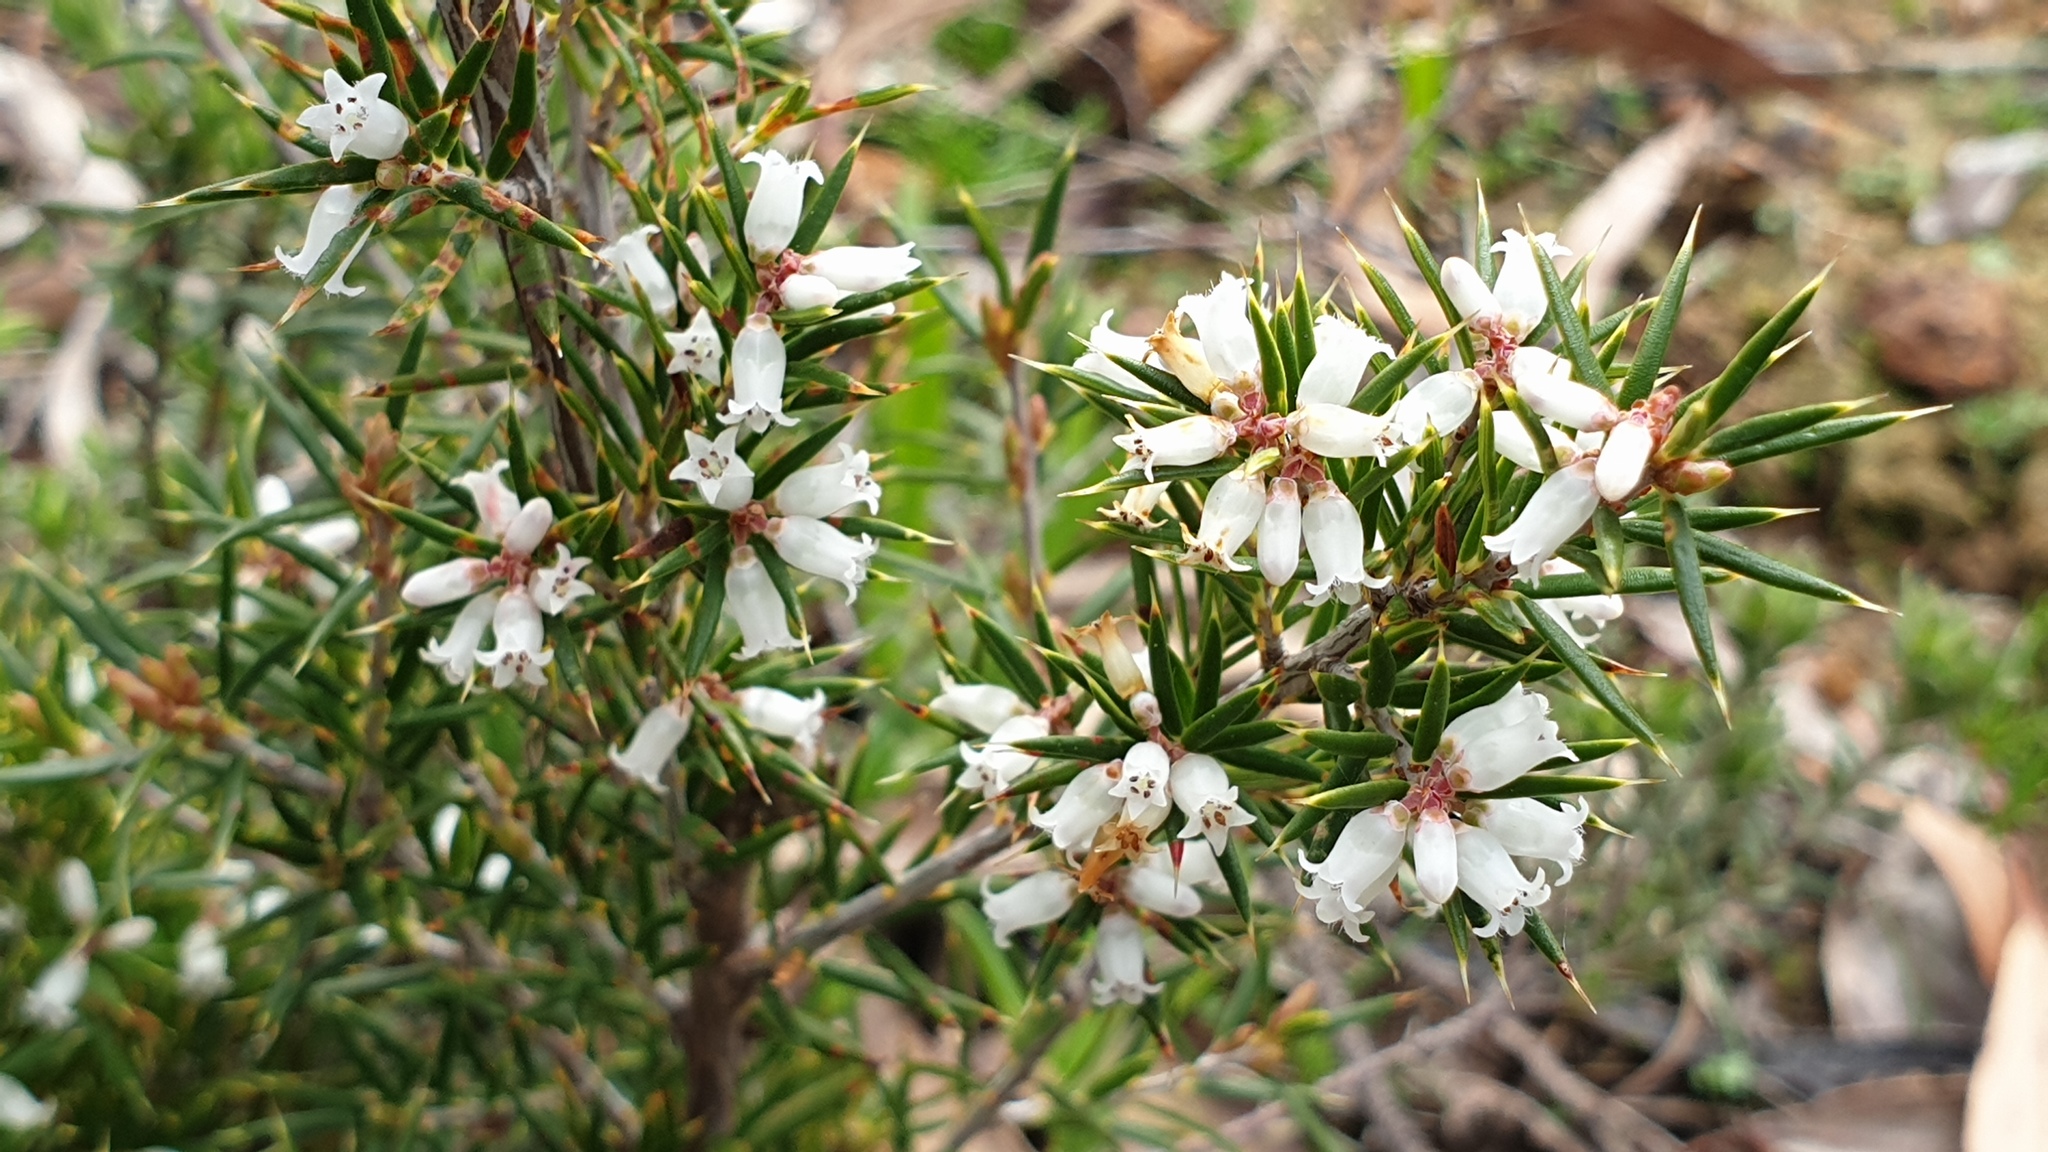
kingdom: Plantae
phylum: Tracheophyta
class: Magnoliopsida
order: Ericales
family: Ericaceae
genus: Lissanthe
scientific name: Lissanthe strigosa
